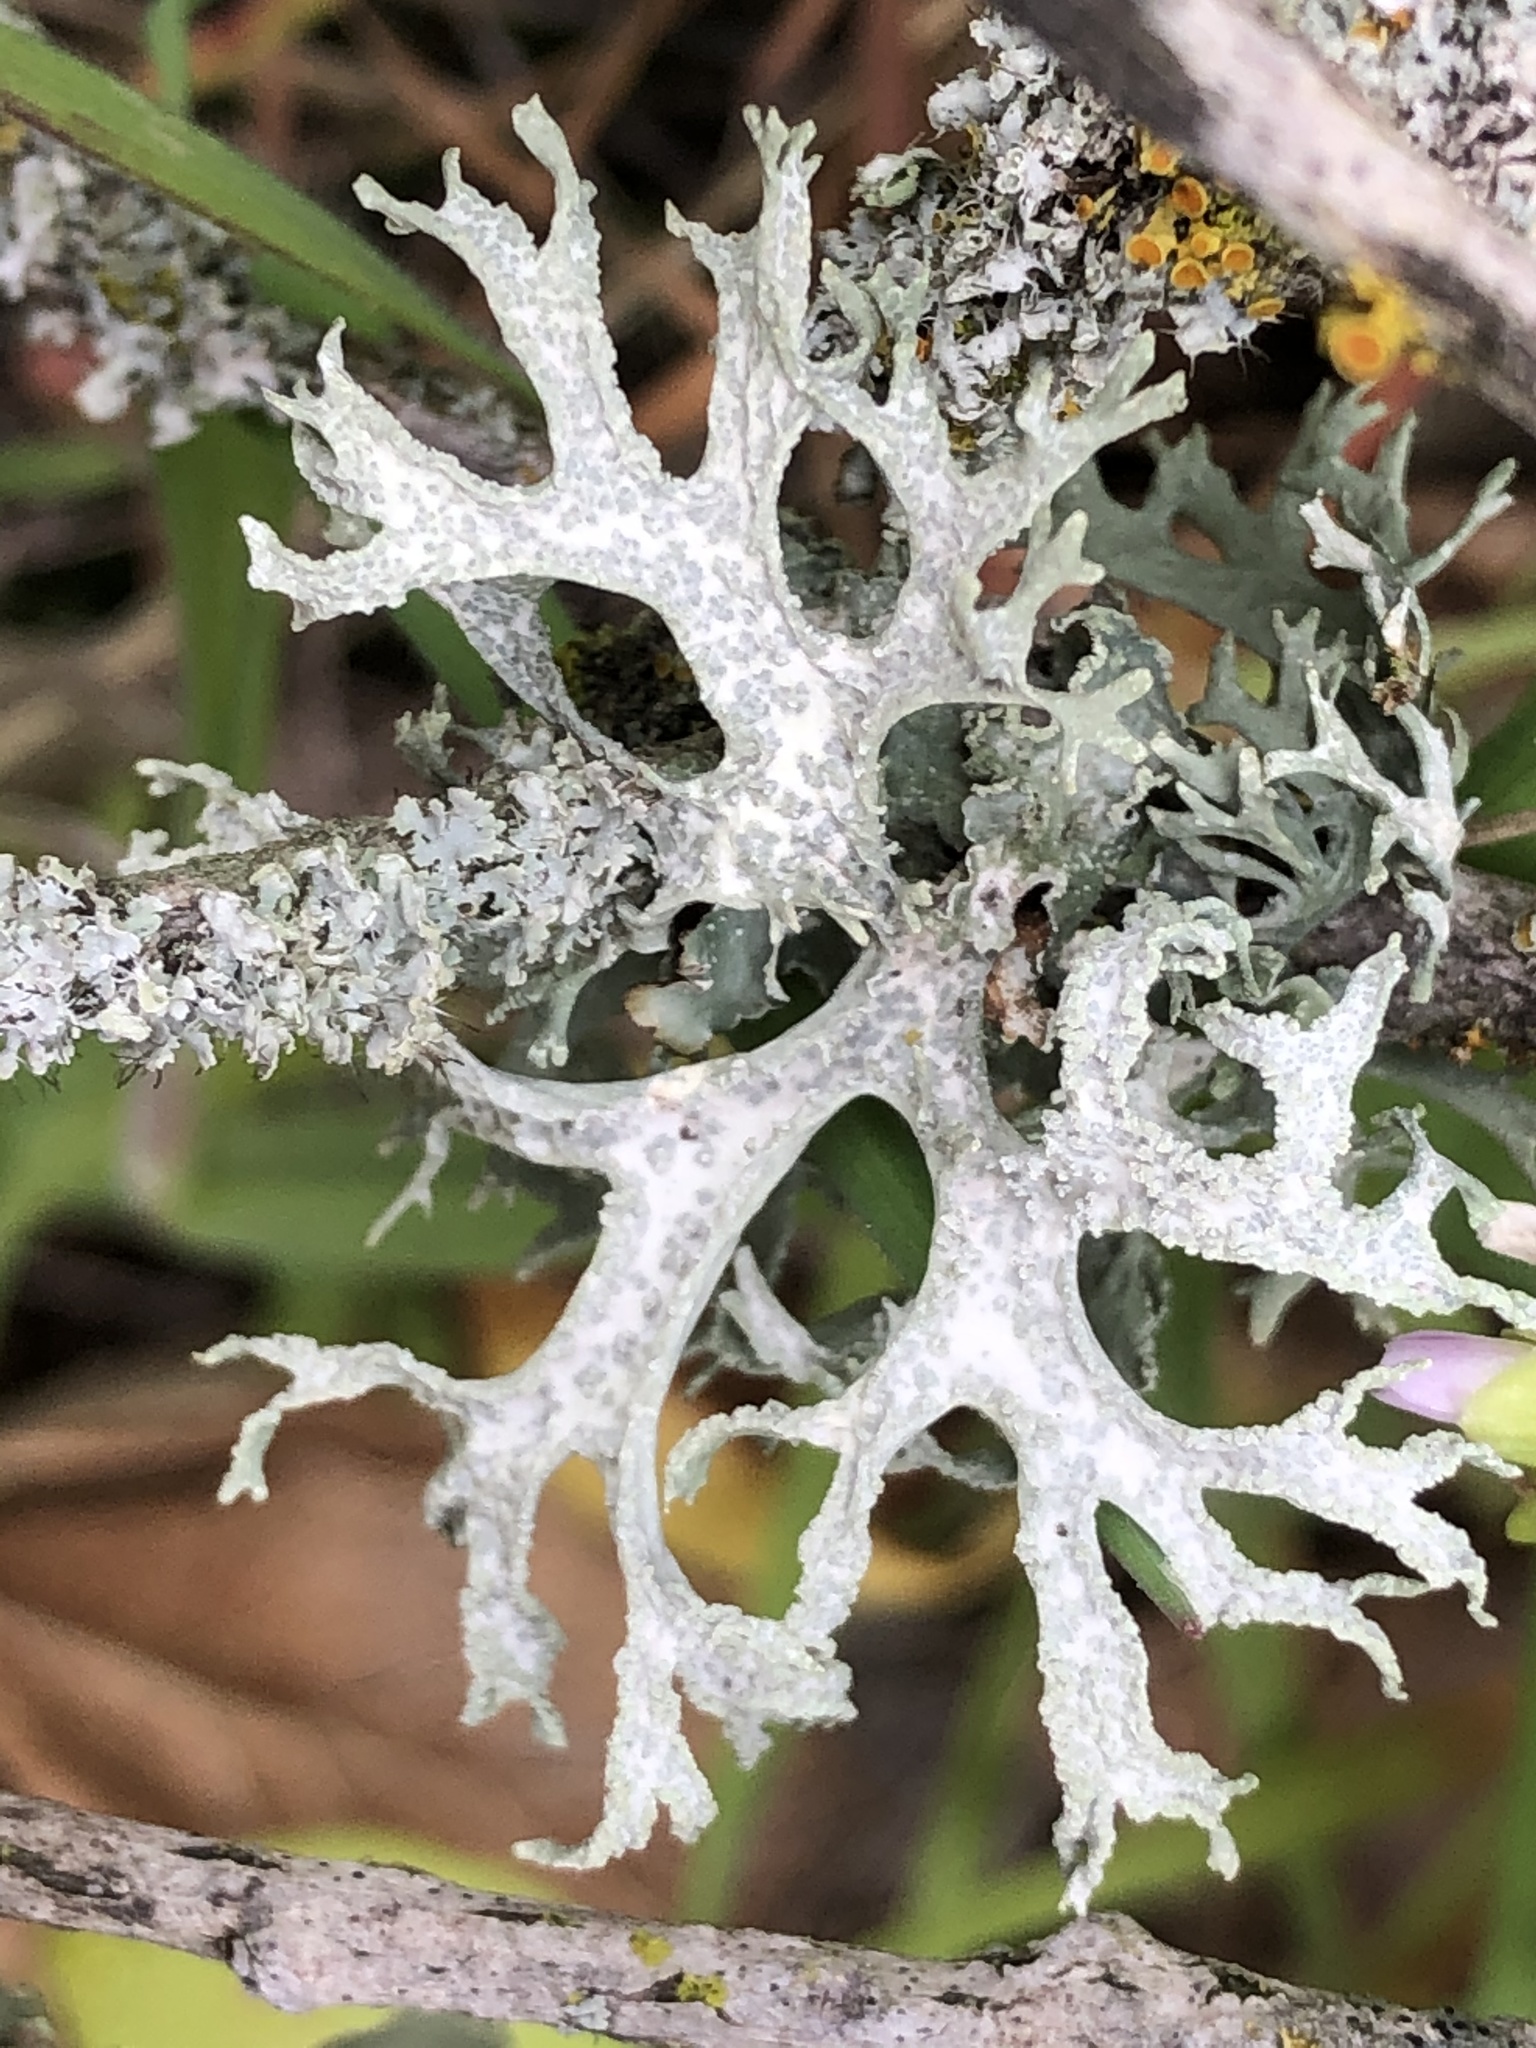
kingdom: Fungi
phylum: Ascomycota
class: Lecanoromycetes
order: Lecanorales
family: Parmeliaceae
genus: Evernia
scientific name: Evernia prunastri
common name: Oak moss
